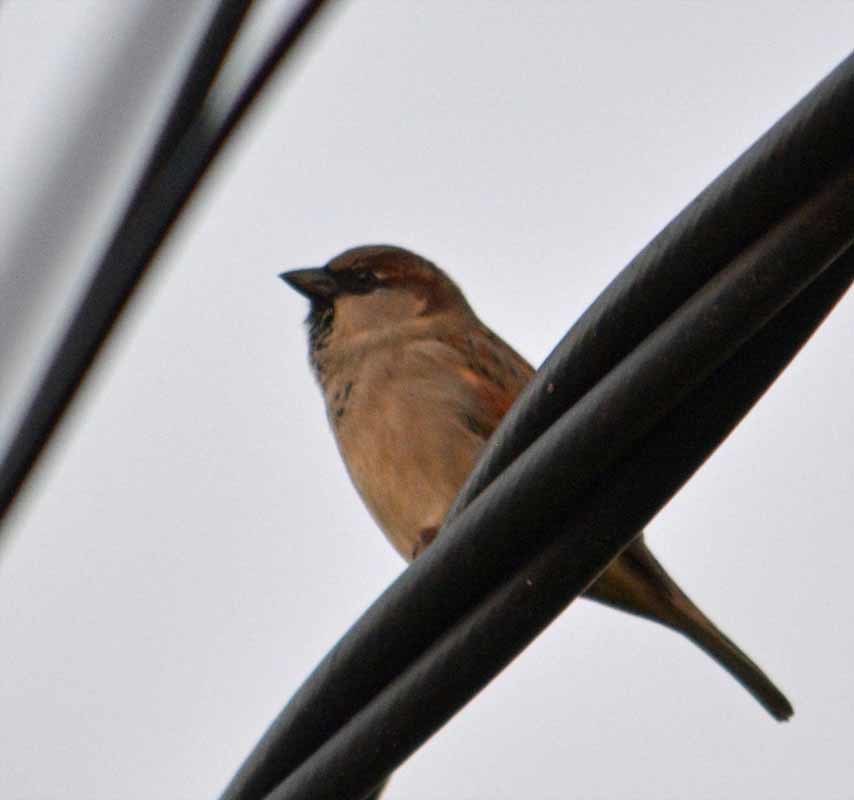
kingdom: Animalia
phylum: Chordata
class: Aves
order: Passeriformes
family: Passeridae
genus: Passer
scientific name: Passer domesticus
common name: House sparrow
